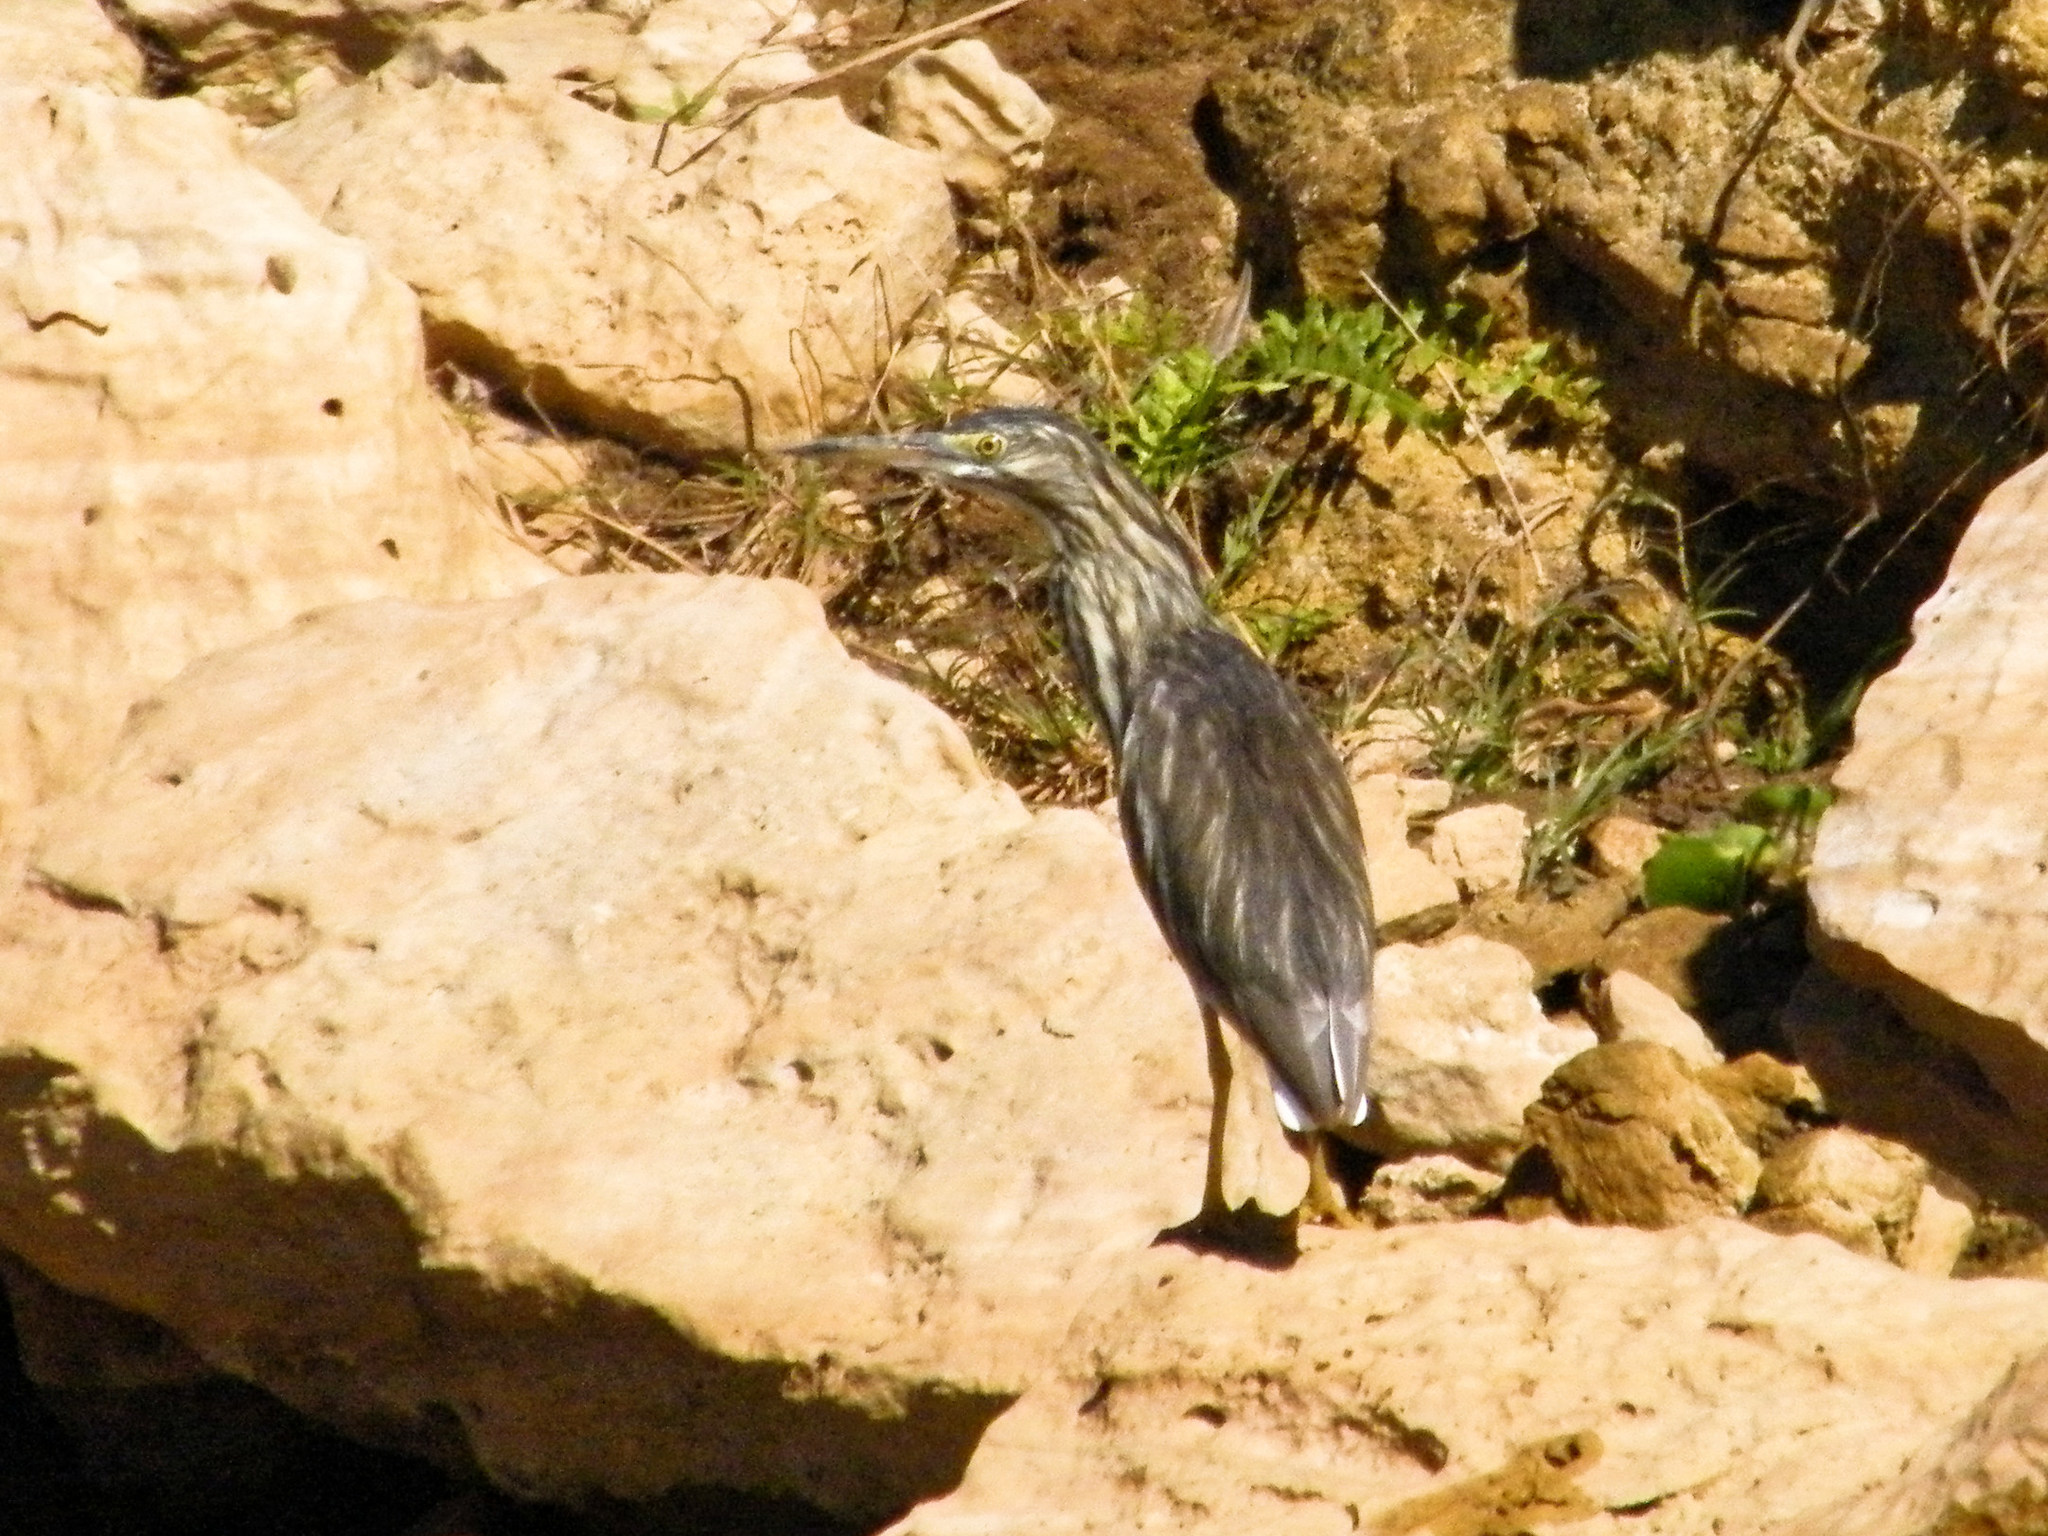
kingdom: Animalia
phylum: Chordata
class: Aves
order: Pelecaniformes
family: Ardeidae
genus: Ardeola
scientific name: Ardeola idae
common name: Malagasy pond heron
